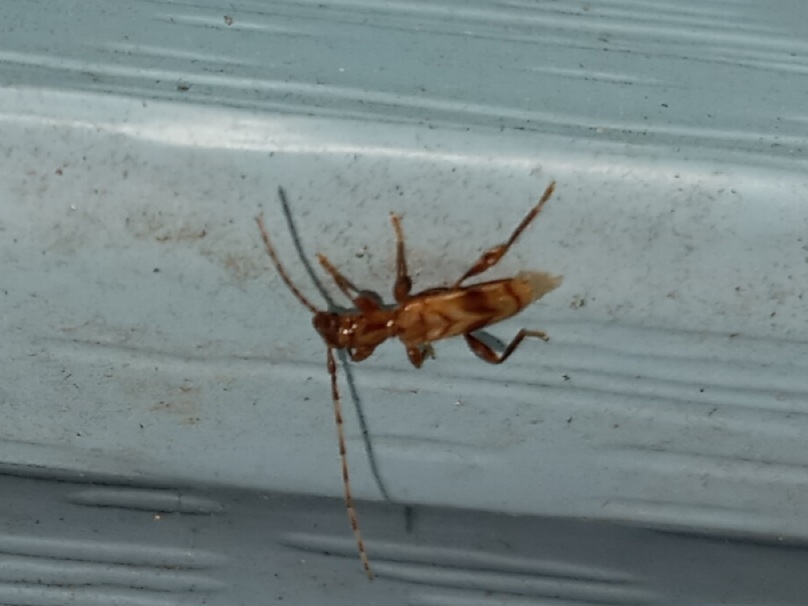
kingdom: Animalia
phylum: Arthropoda
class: Insecta
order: Coleoptera
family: Cerambycidae
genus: Obrium
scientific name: Obrium maculatum
